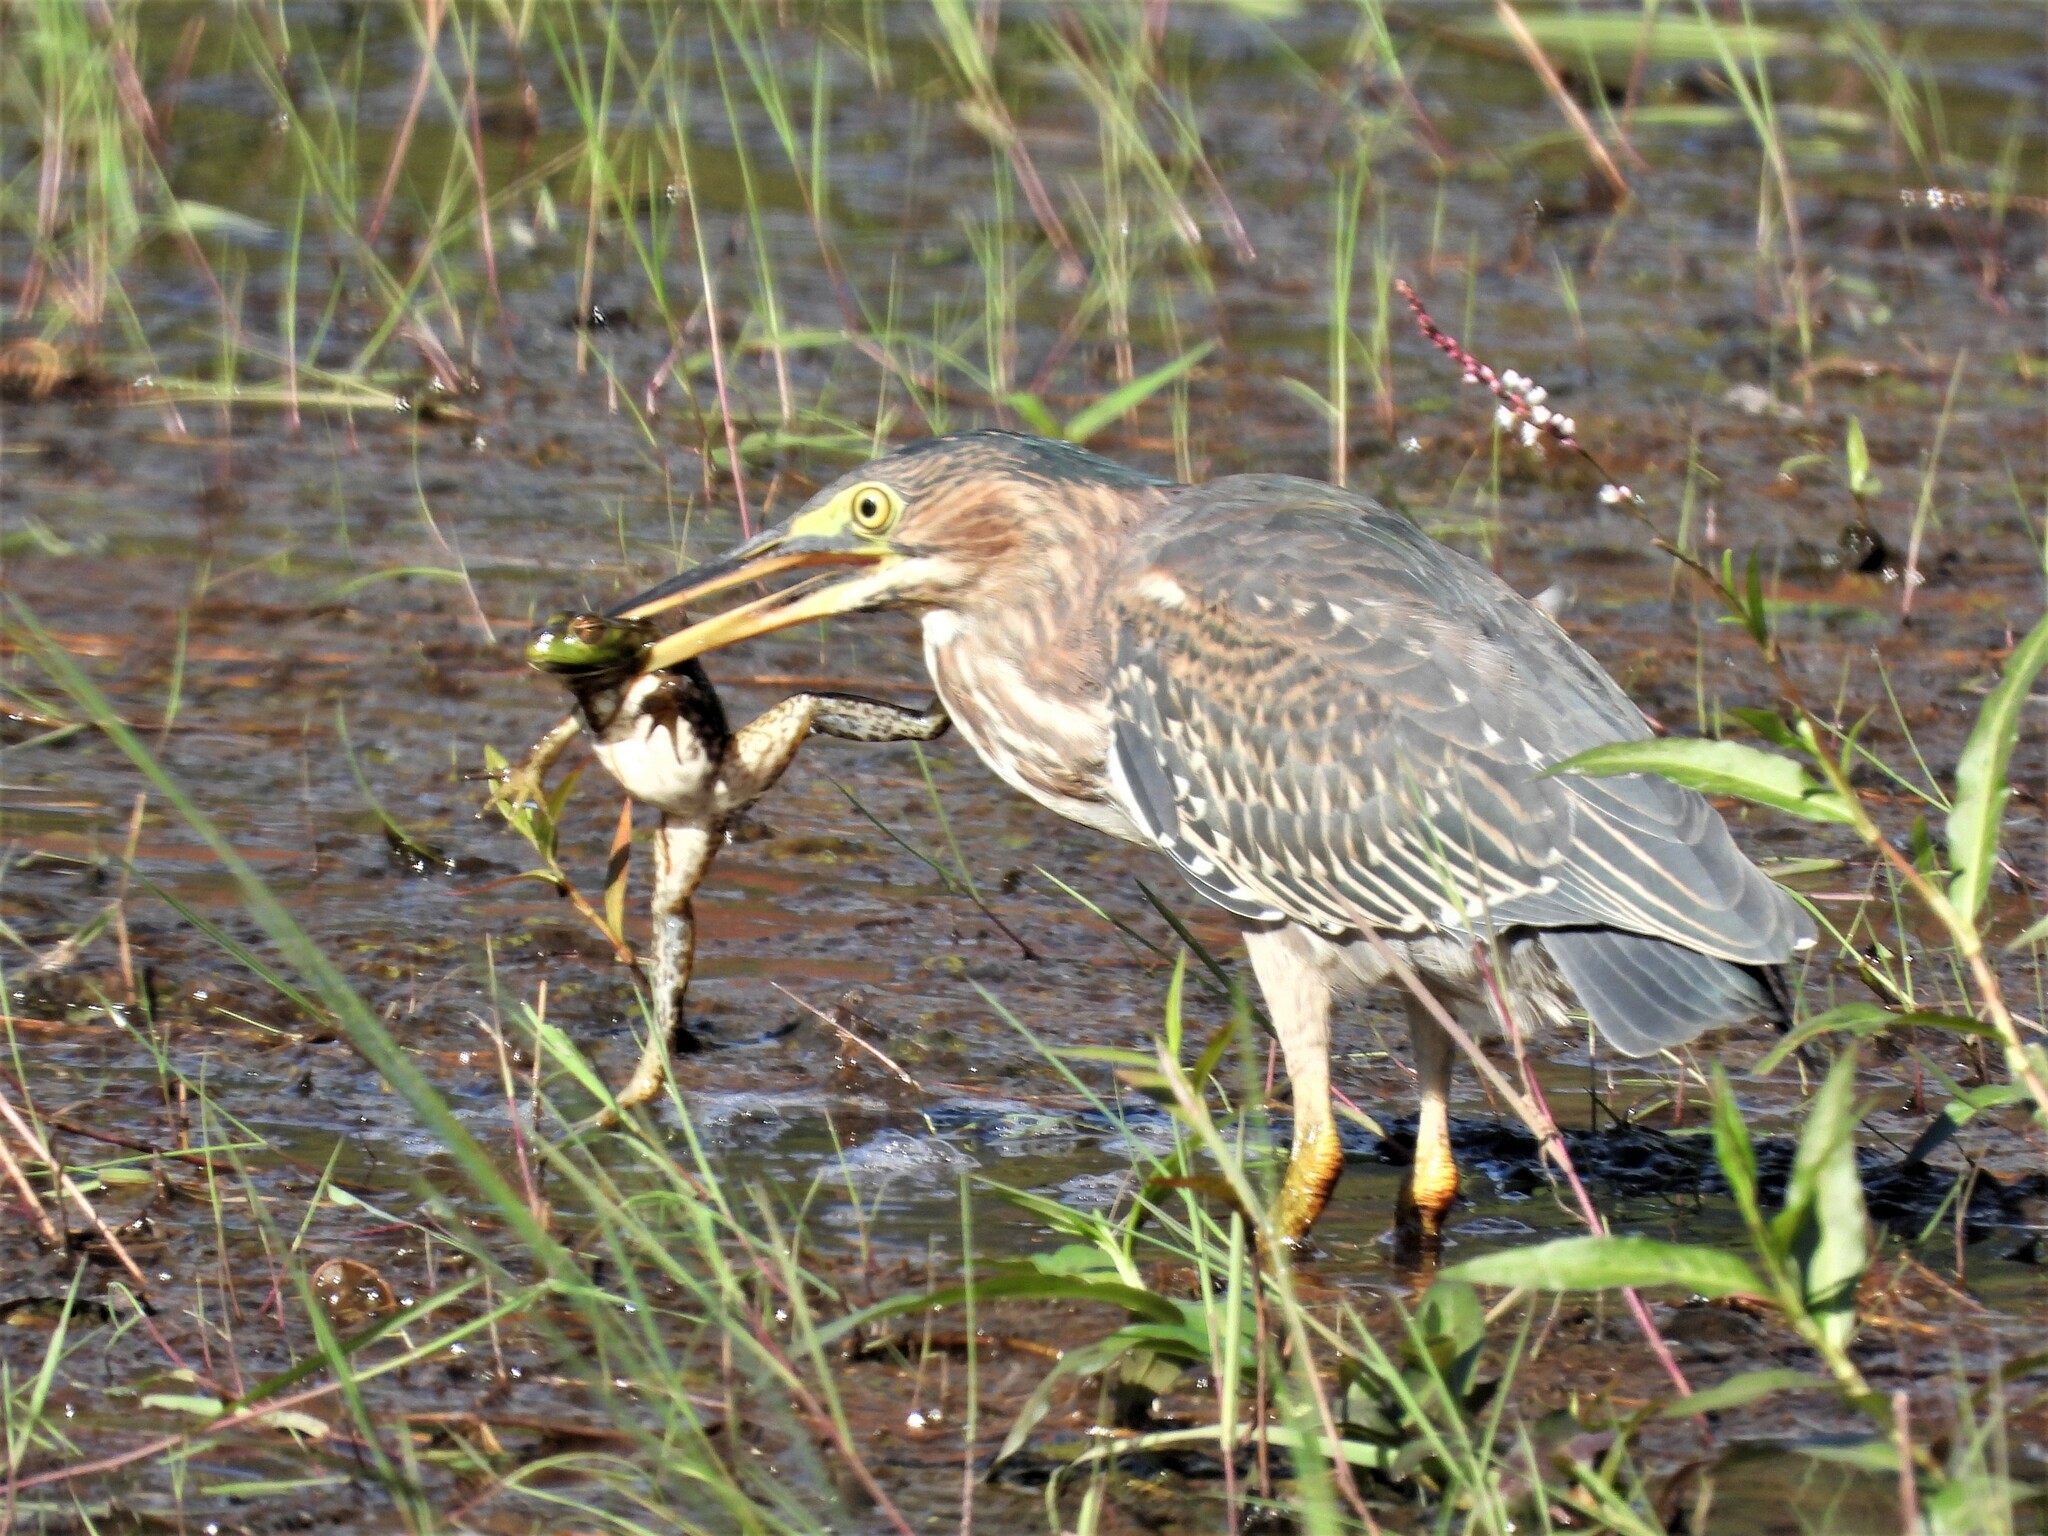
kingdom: Animalia
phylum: Chordata
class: Aves
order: Pelecaniformes
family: Ardeidae
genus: Butorides
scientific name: Butorides virescens
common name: Green heron
